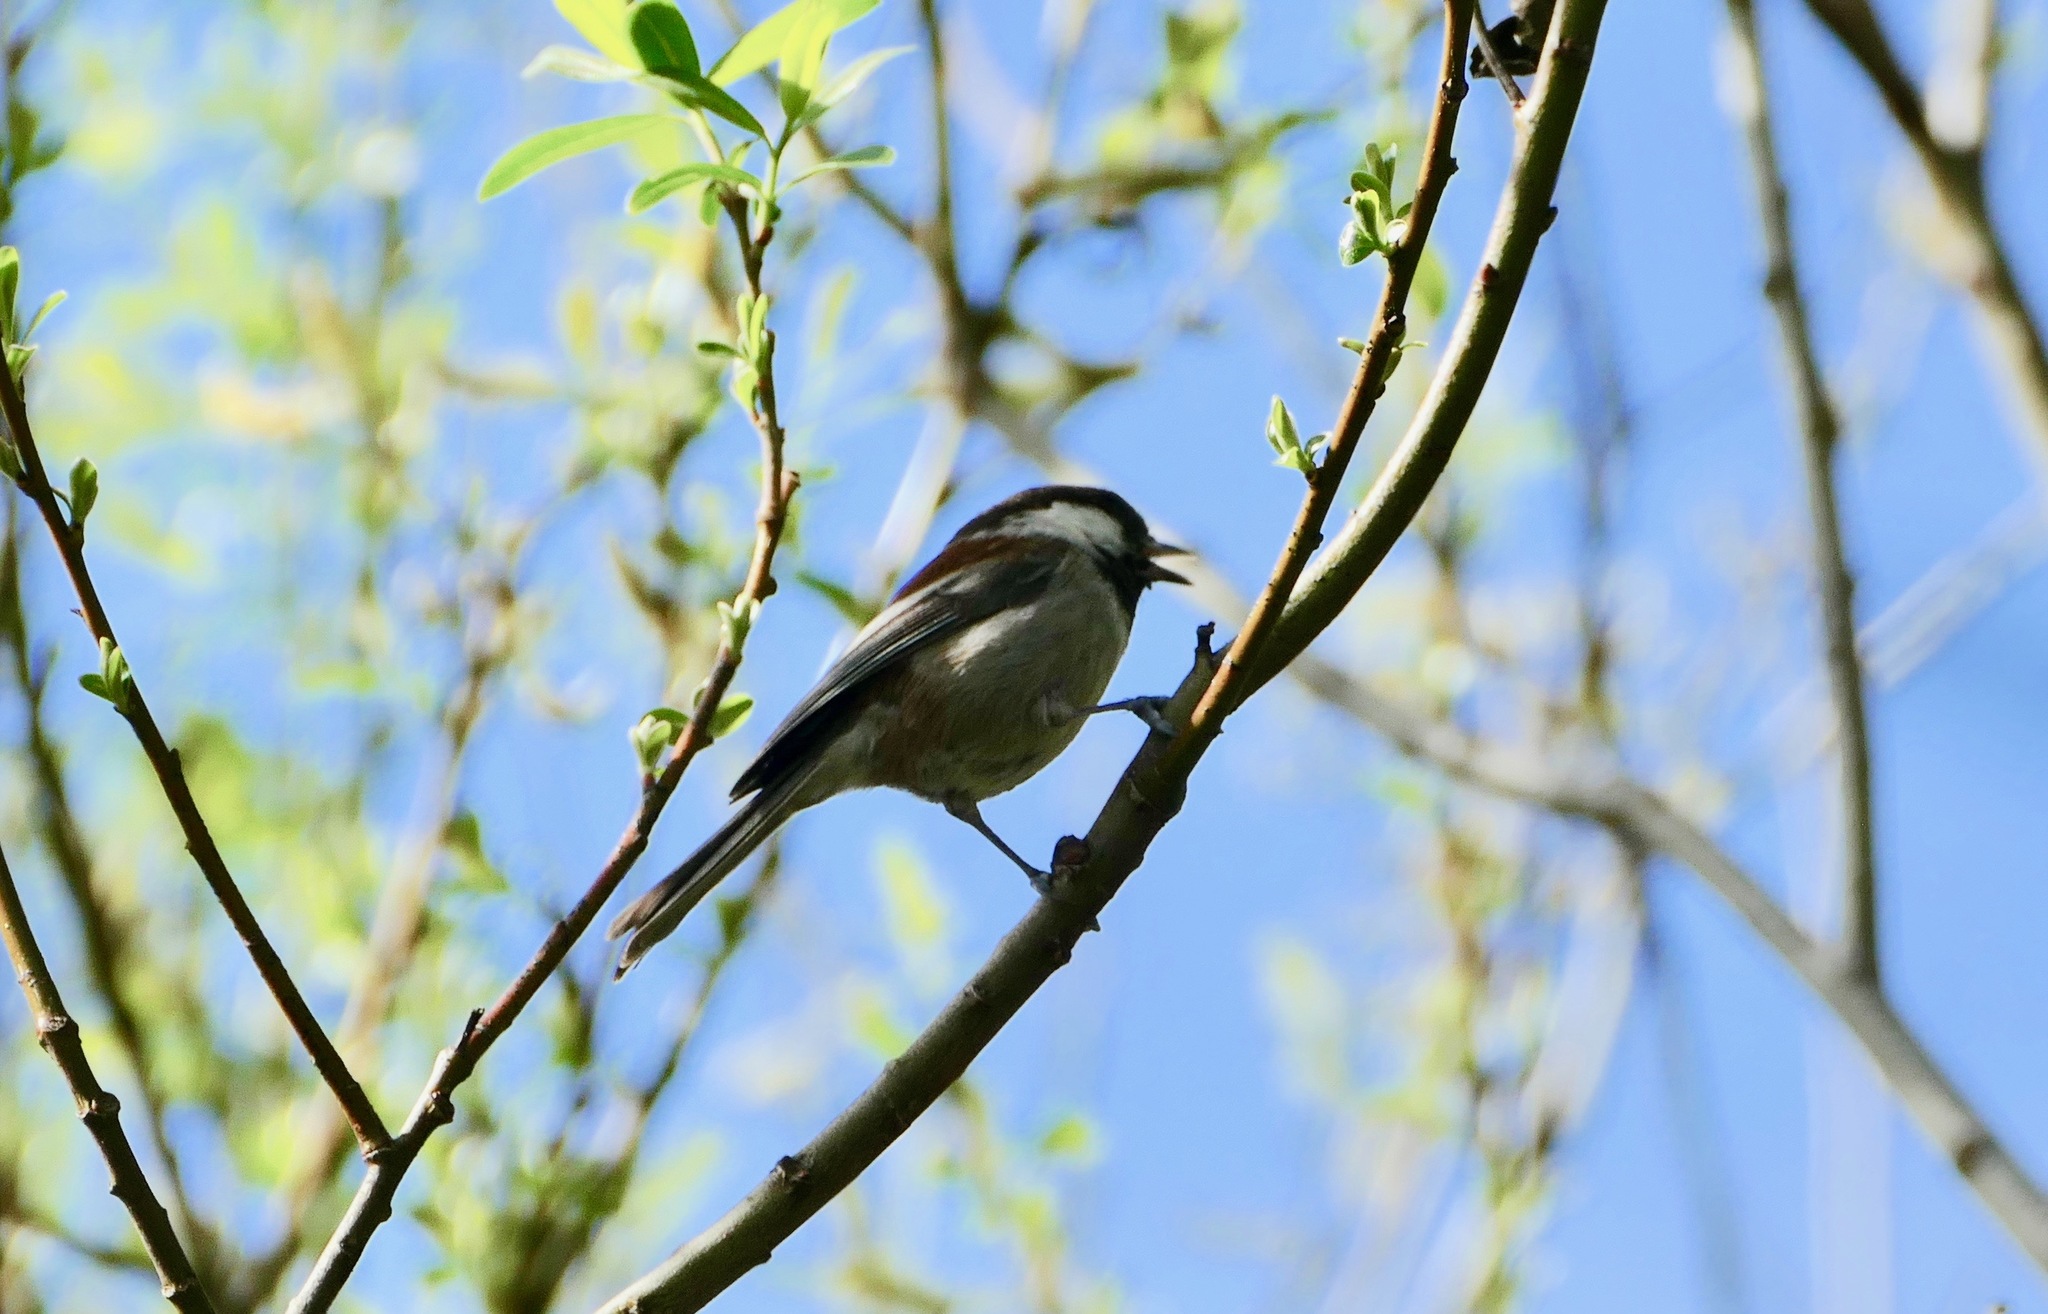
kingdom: Animalia
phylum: Chordata
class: Aves
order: Passeriformes
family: Paridae
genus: Poecile
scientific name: Poecile rufescens
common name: Chestnut-backed chickadee
